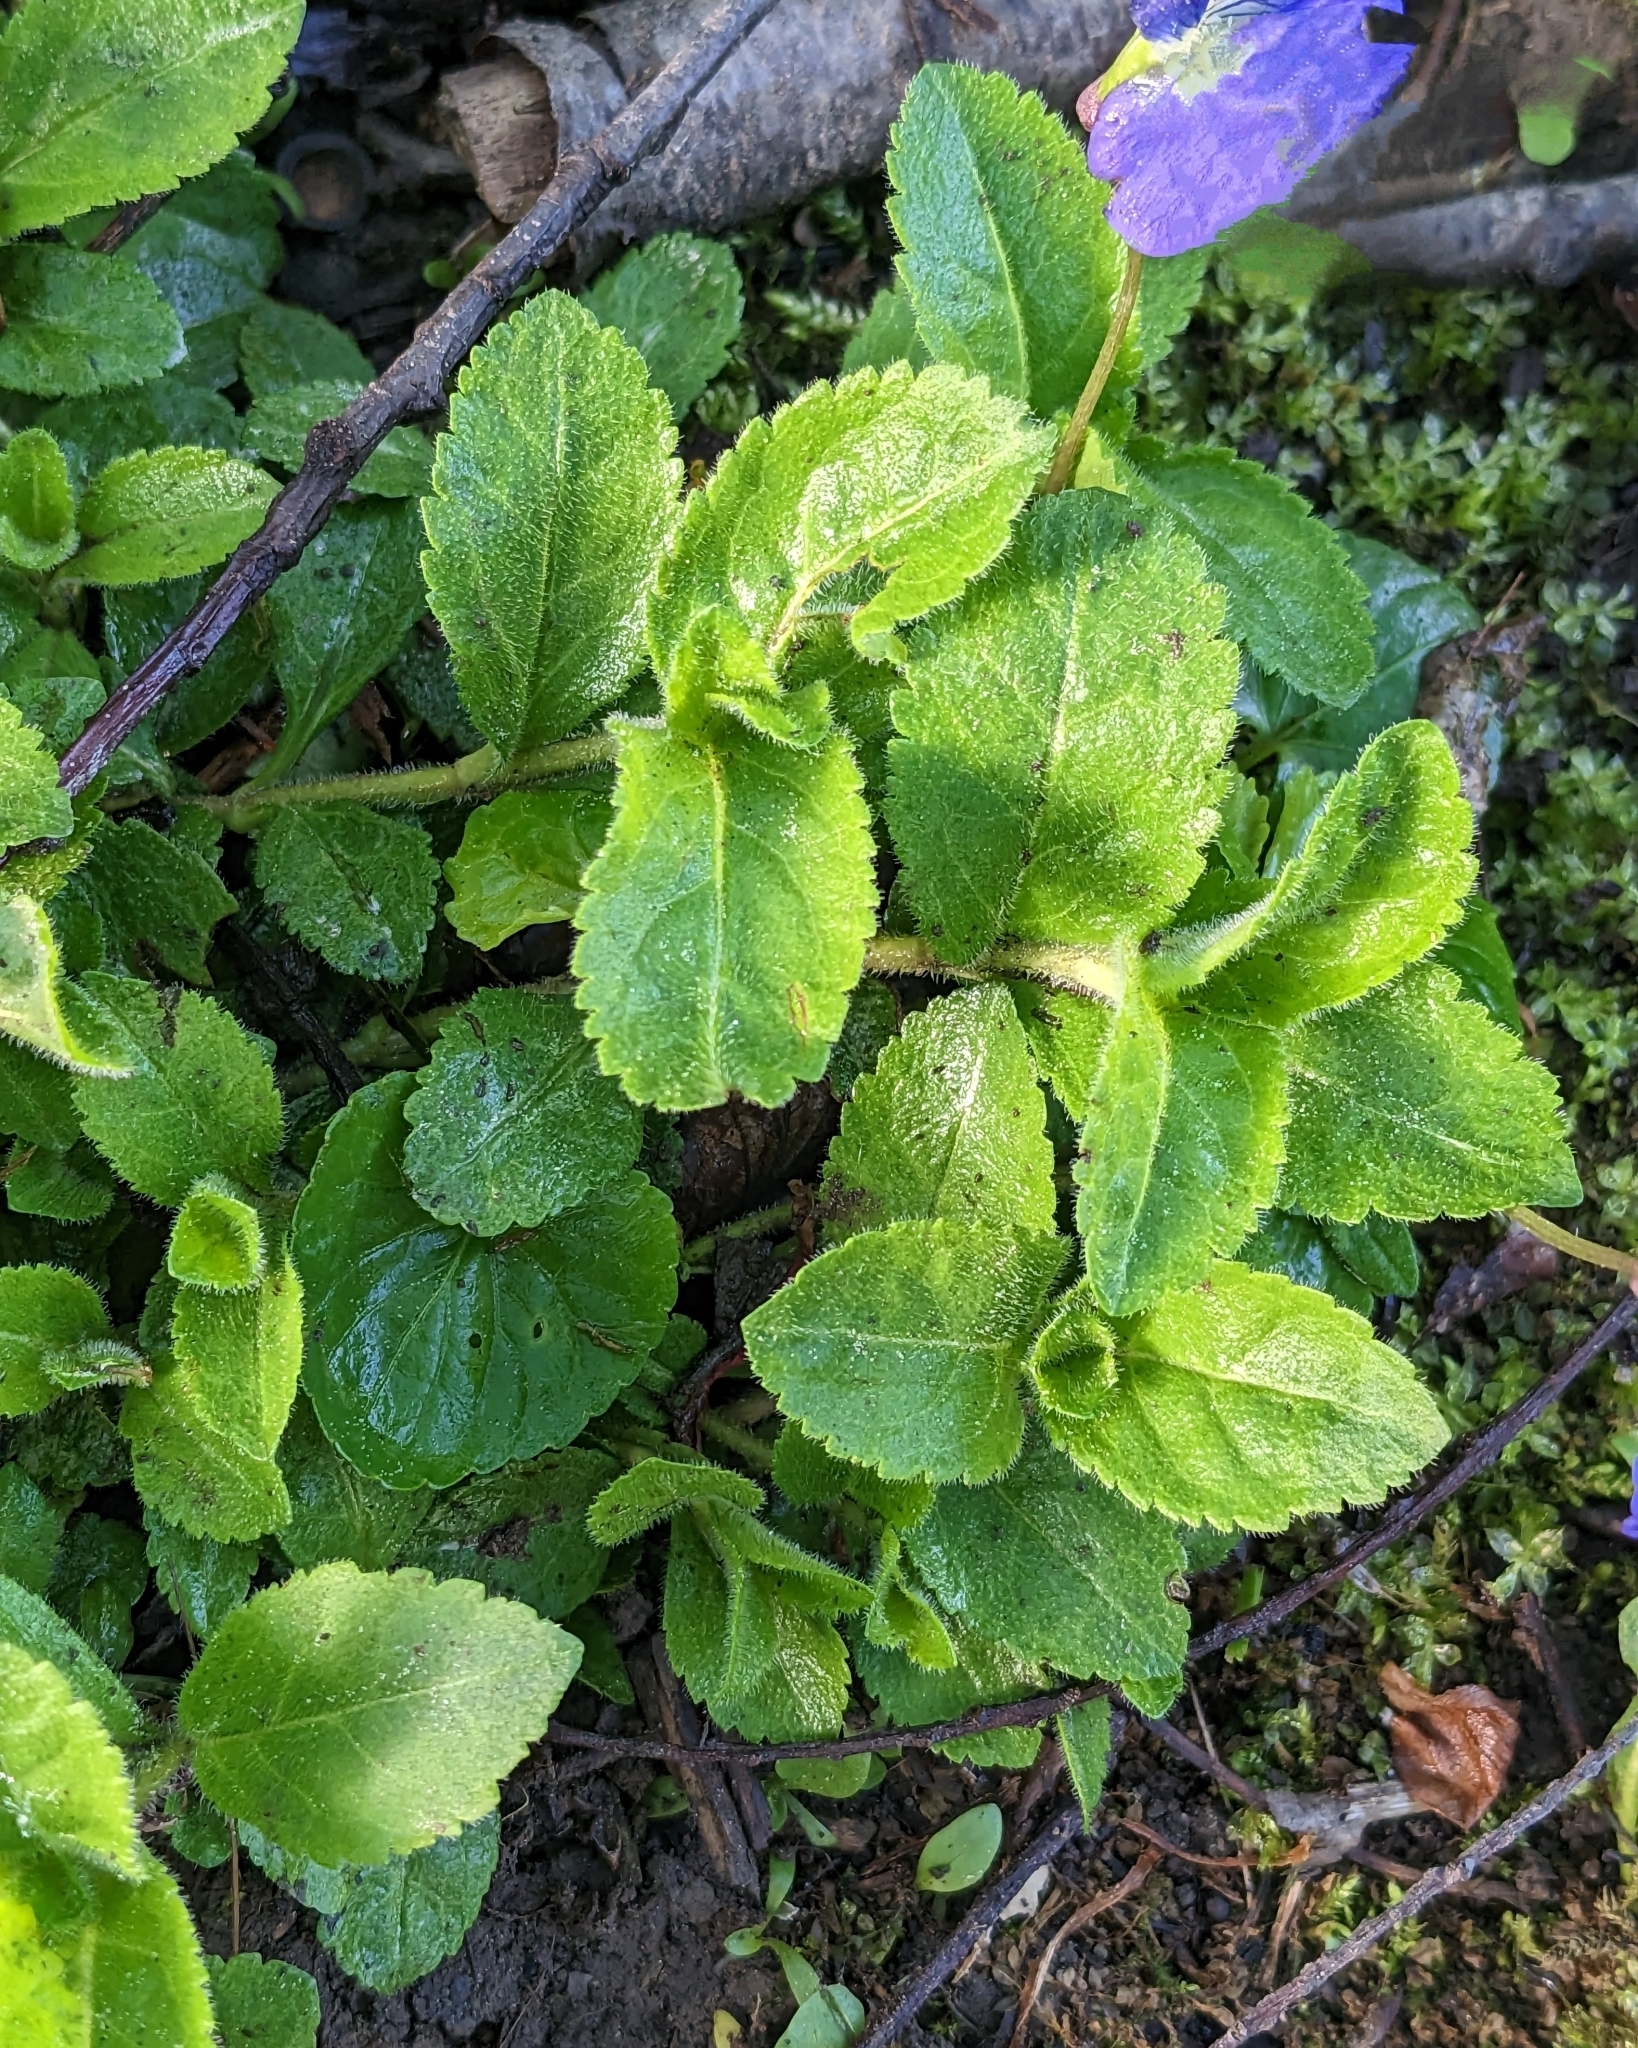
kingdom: Plantae
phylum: Tracheophyta
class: Magnoliopsida
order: Lamiales
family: Plantaginaceae
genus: Veronica
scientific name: Veronica officinalis
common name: Common speedwell
